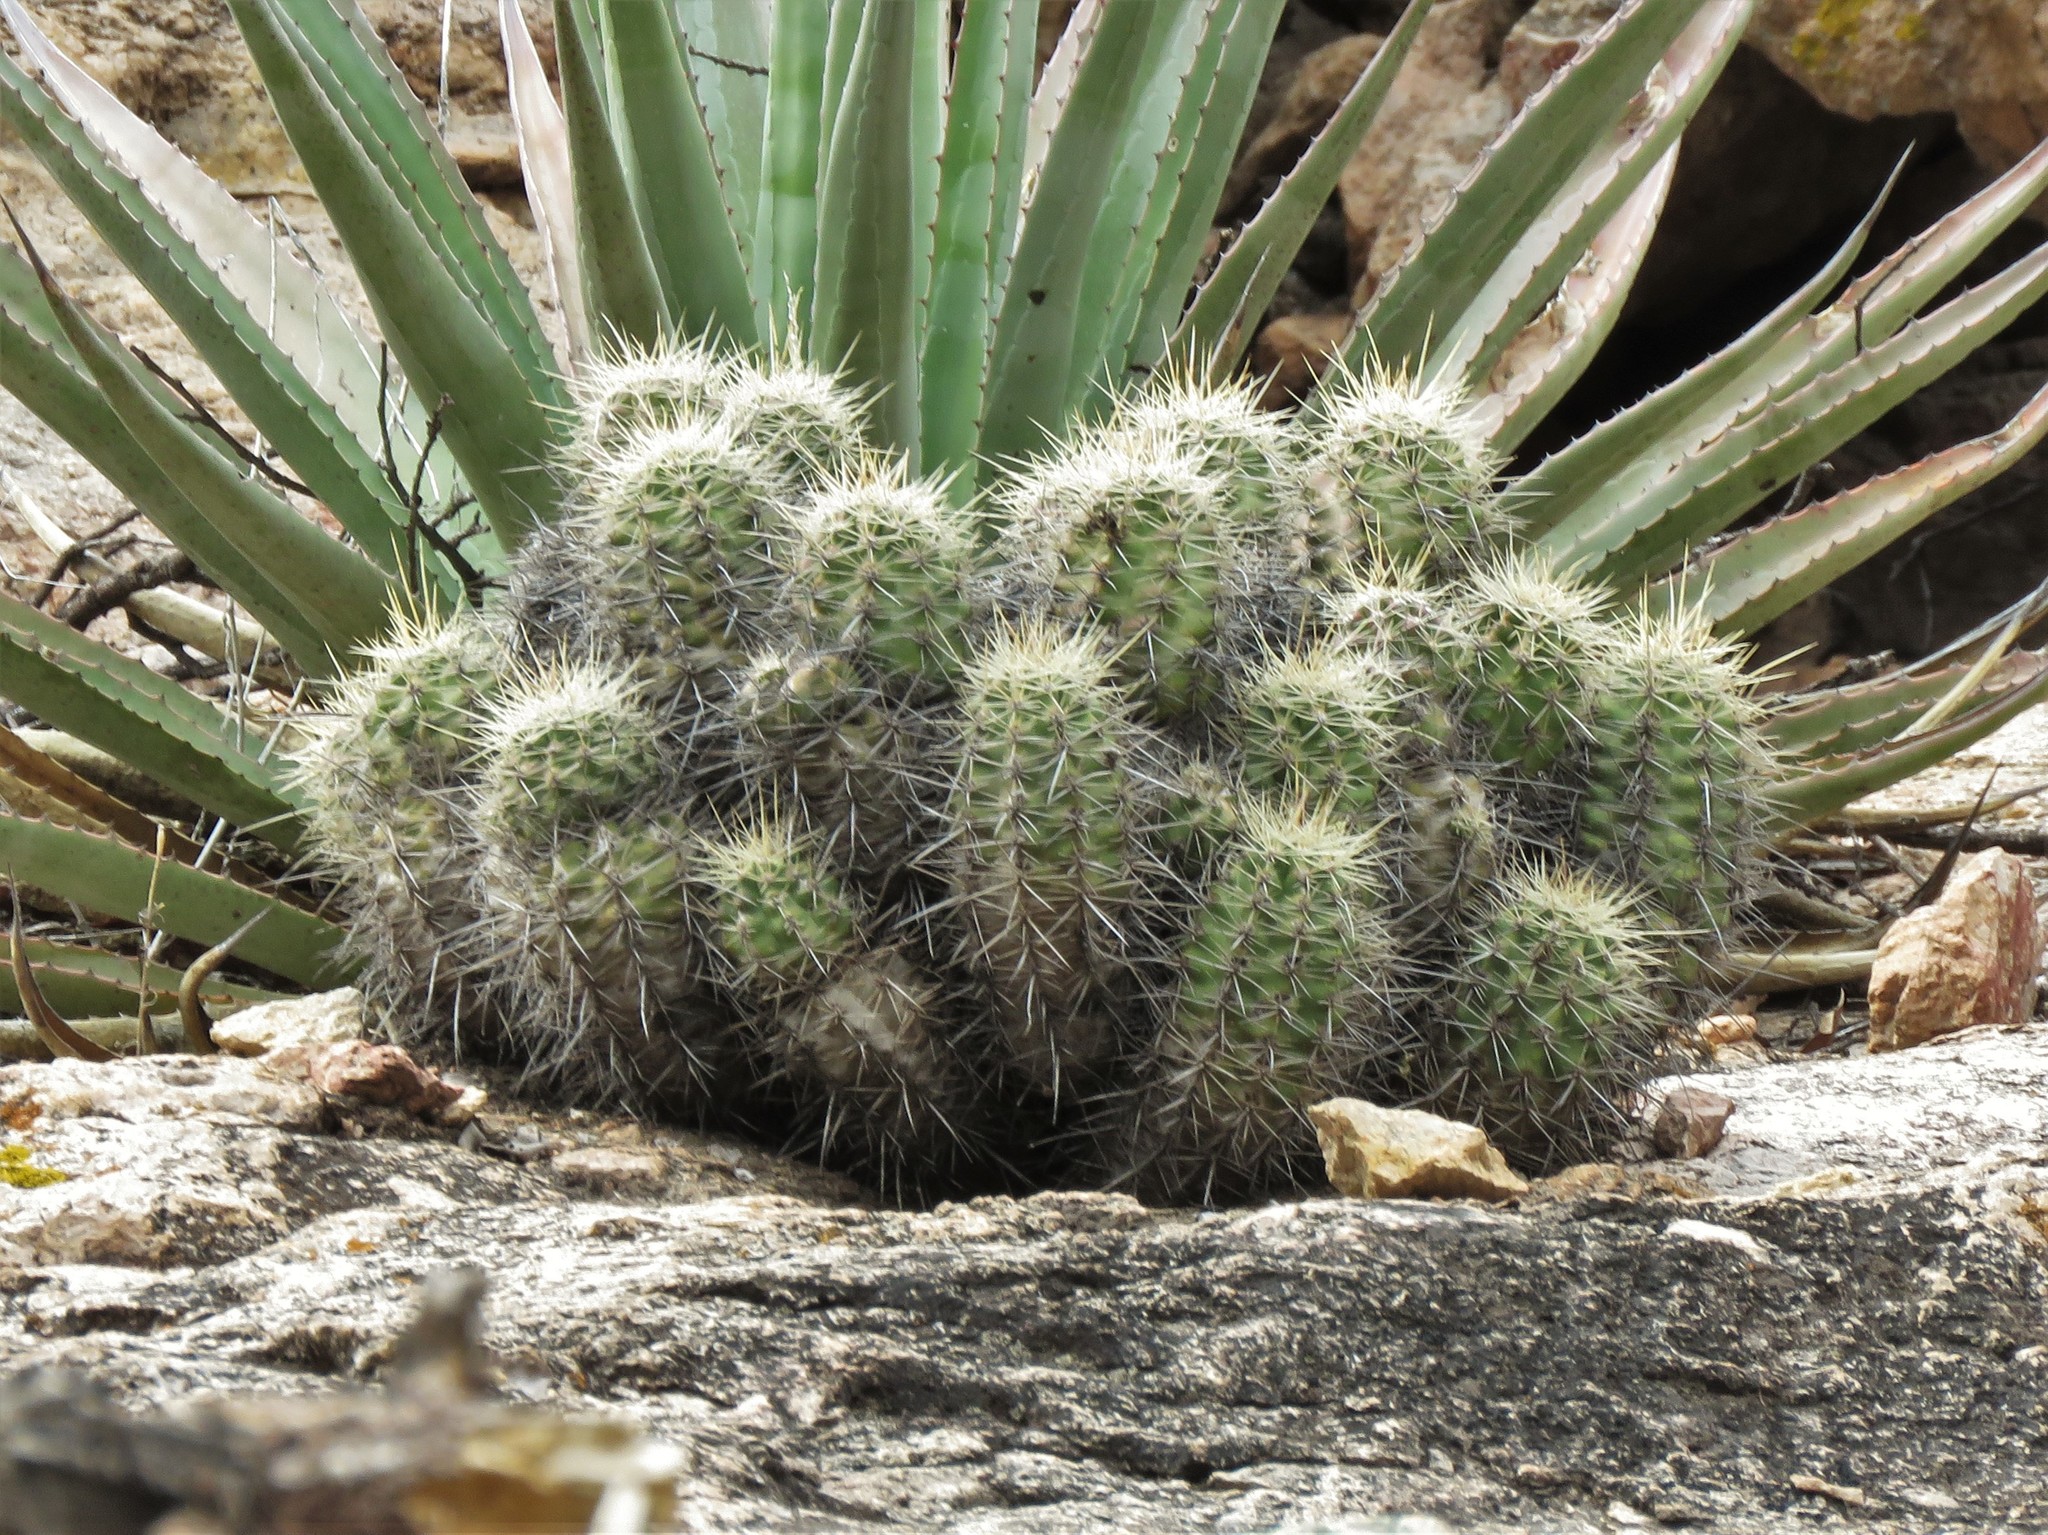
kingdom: Plantae
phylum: Tracheophyta
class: Magnoliopsida
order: Caryophyllales
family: Cactaceae
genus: Echinocereus
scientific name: Echinocereus coccineus
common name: Scarlet hedgehog cactus
